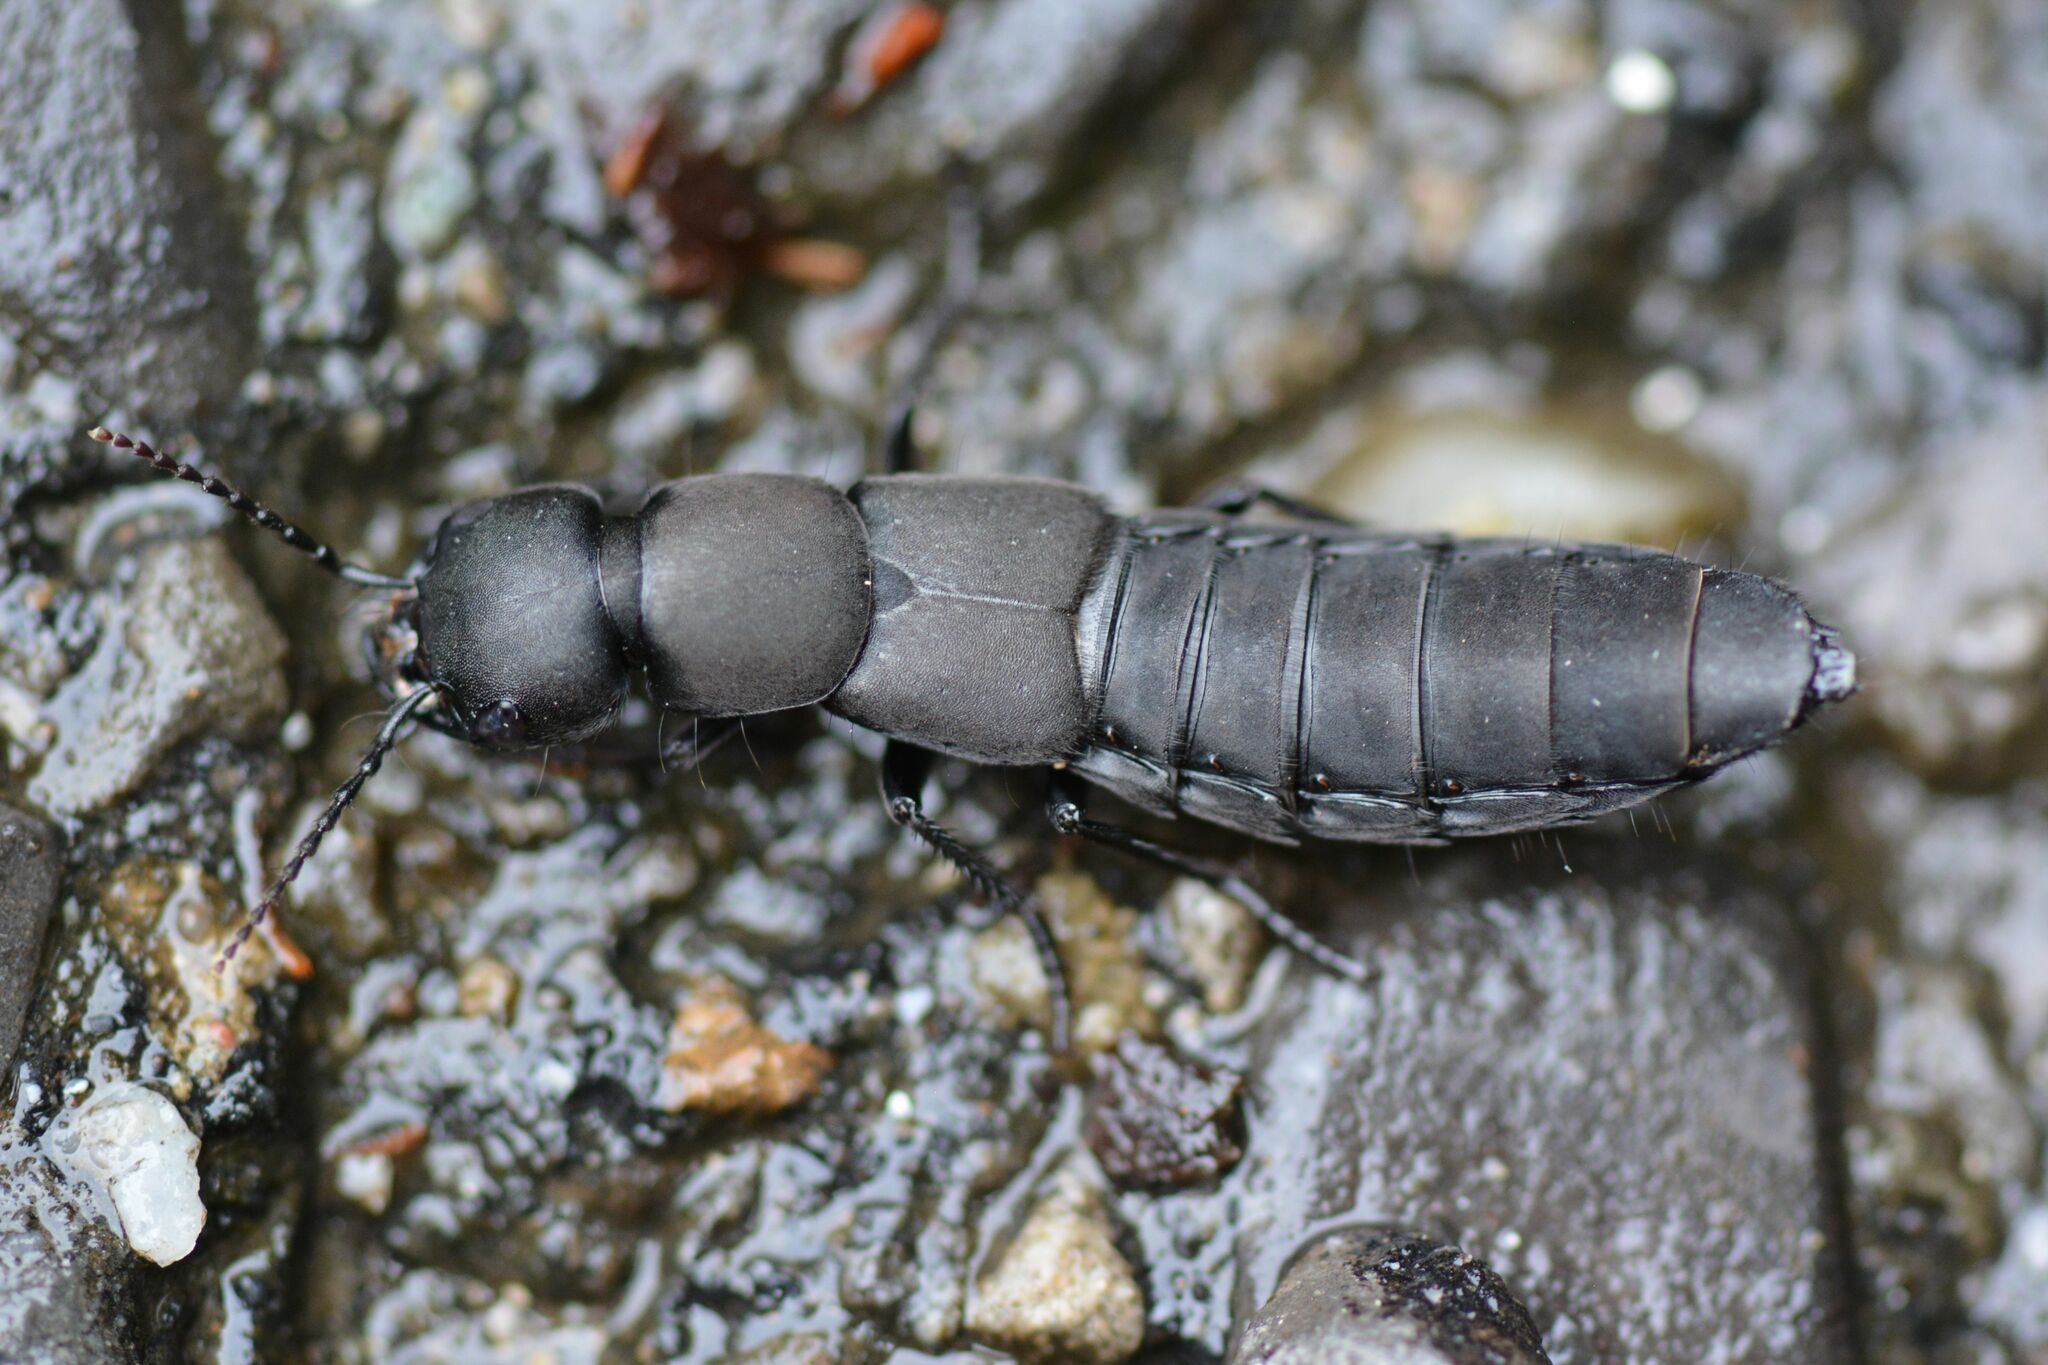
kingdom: Animalia
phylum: Arthropoda
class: Insecta
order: Coleoptera
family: Staphylinidae
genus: Ocypus
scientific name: Ocypus olens
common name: Devil's coach-horse
